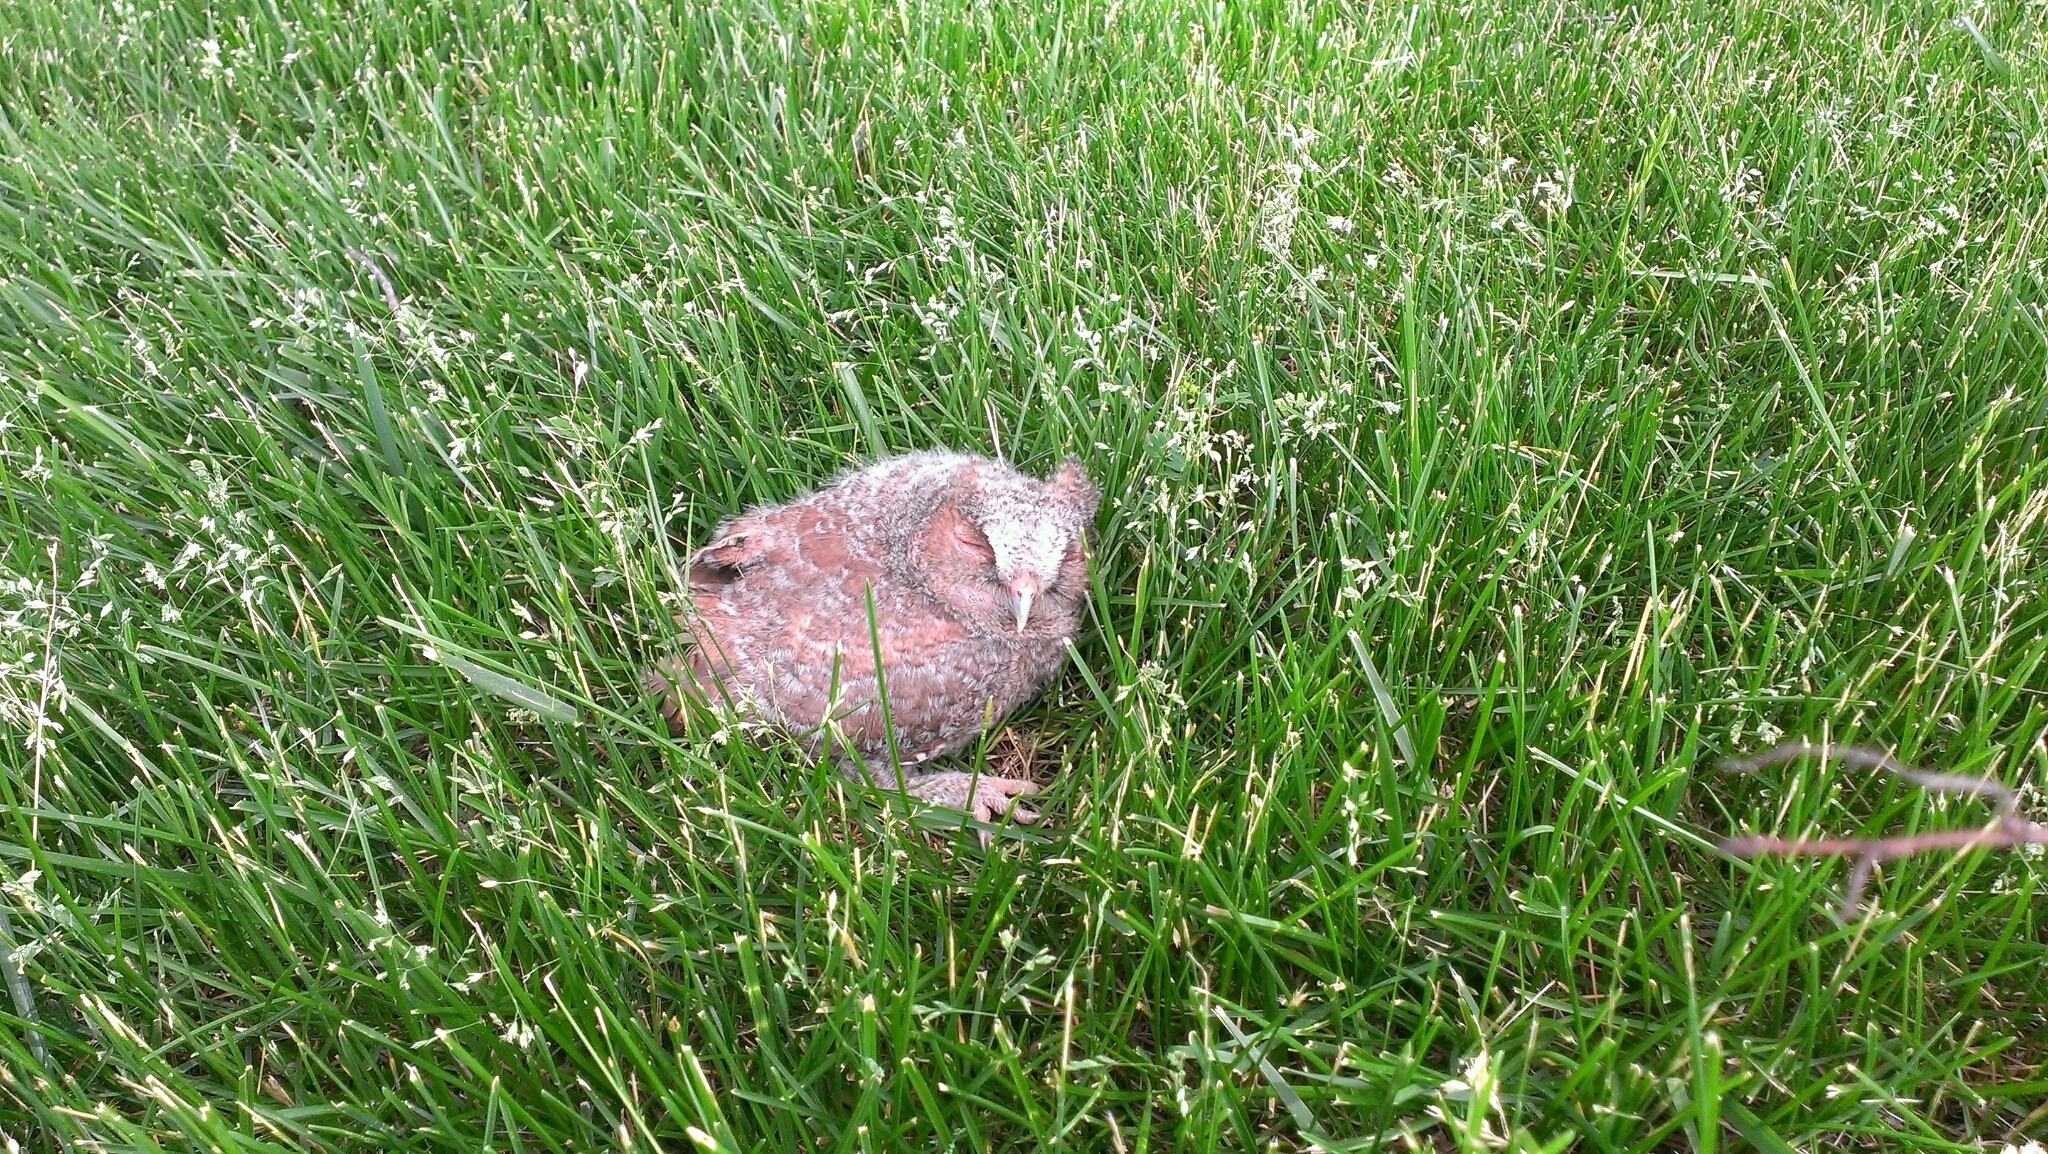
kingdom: Animalia
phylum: Chordata
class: Aves
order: Strigiformes
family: Strigidae
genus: Megascops
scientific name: Megascops asio
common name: Eastern screech-owl
